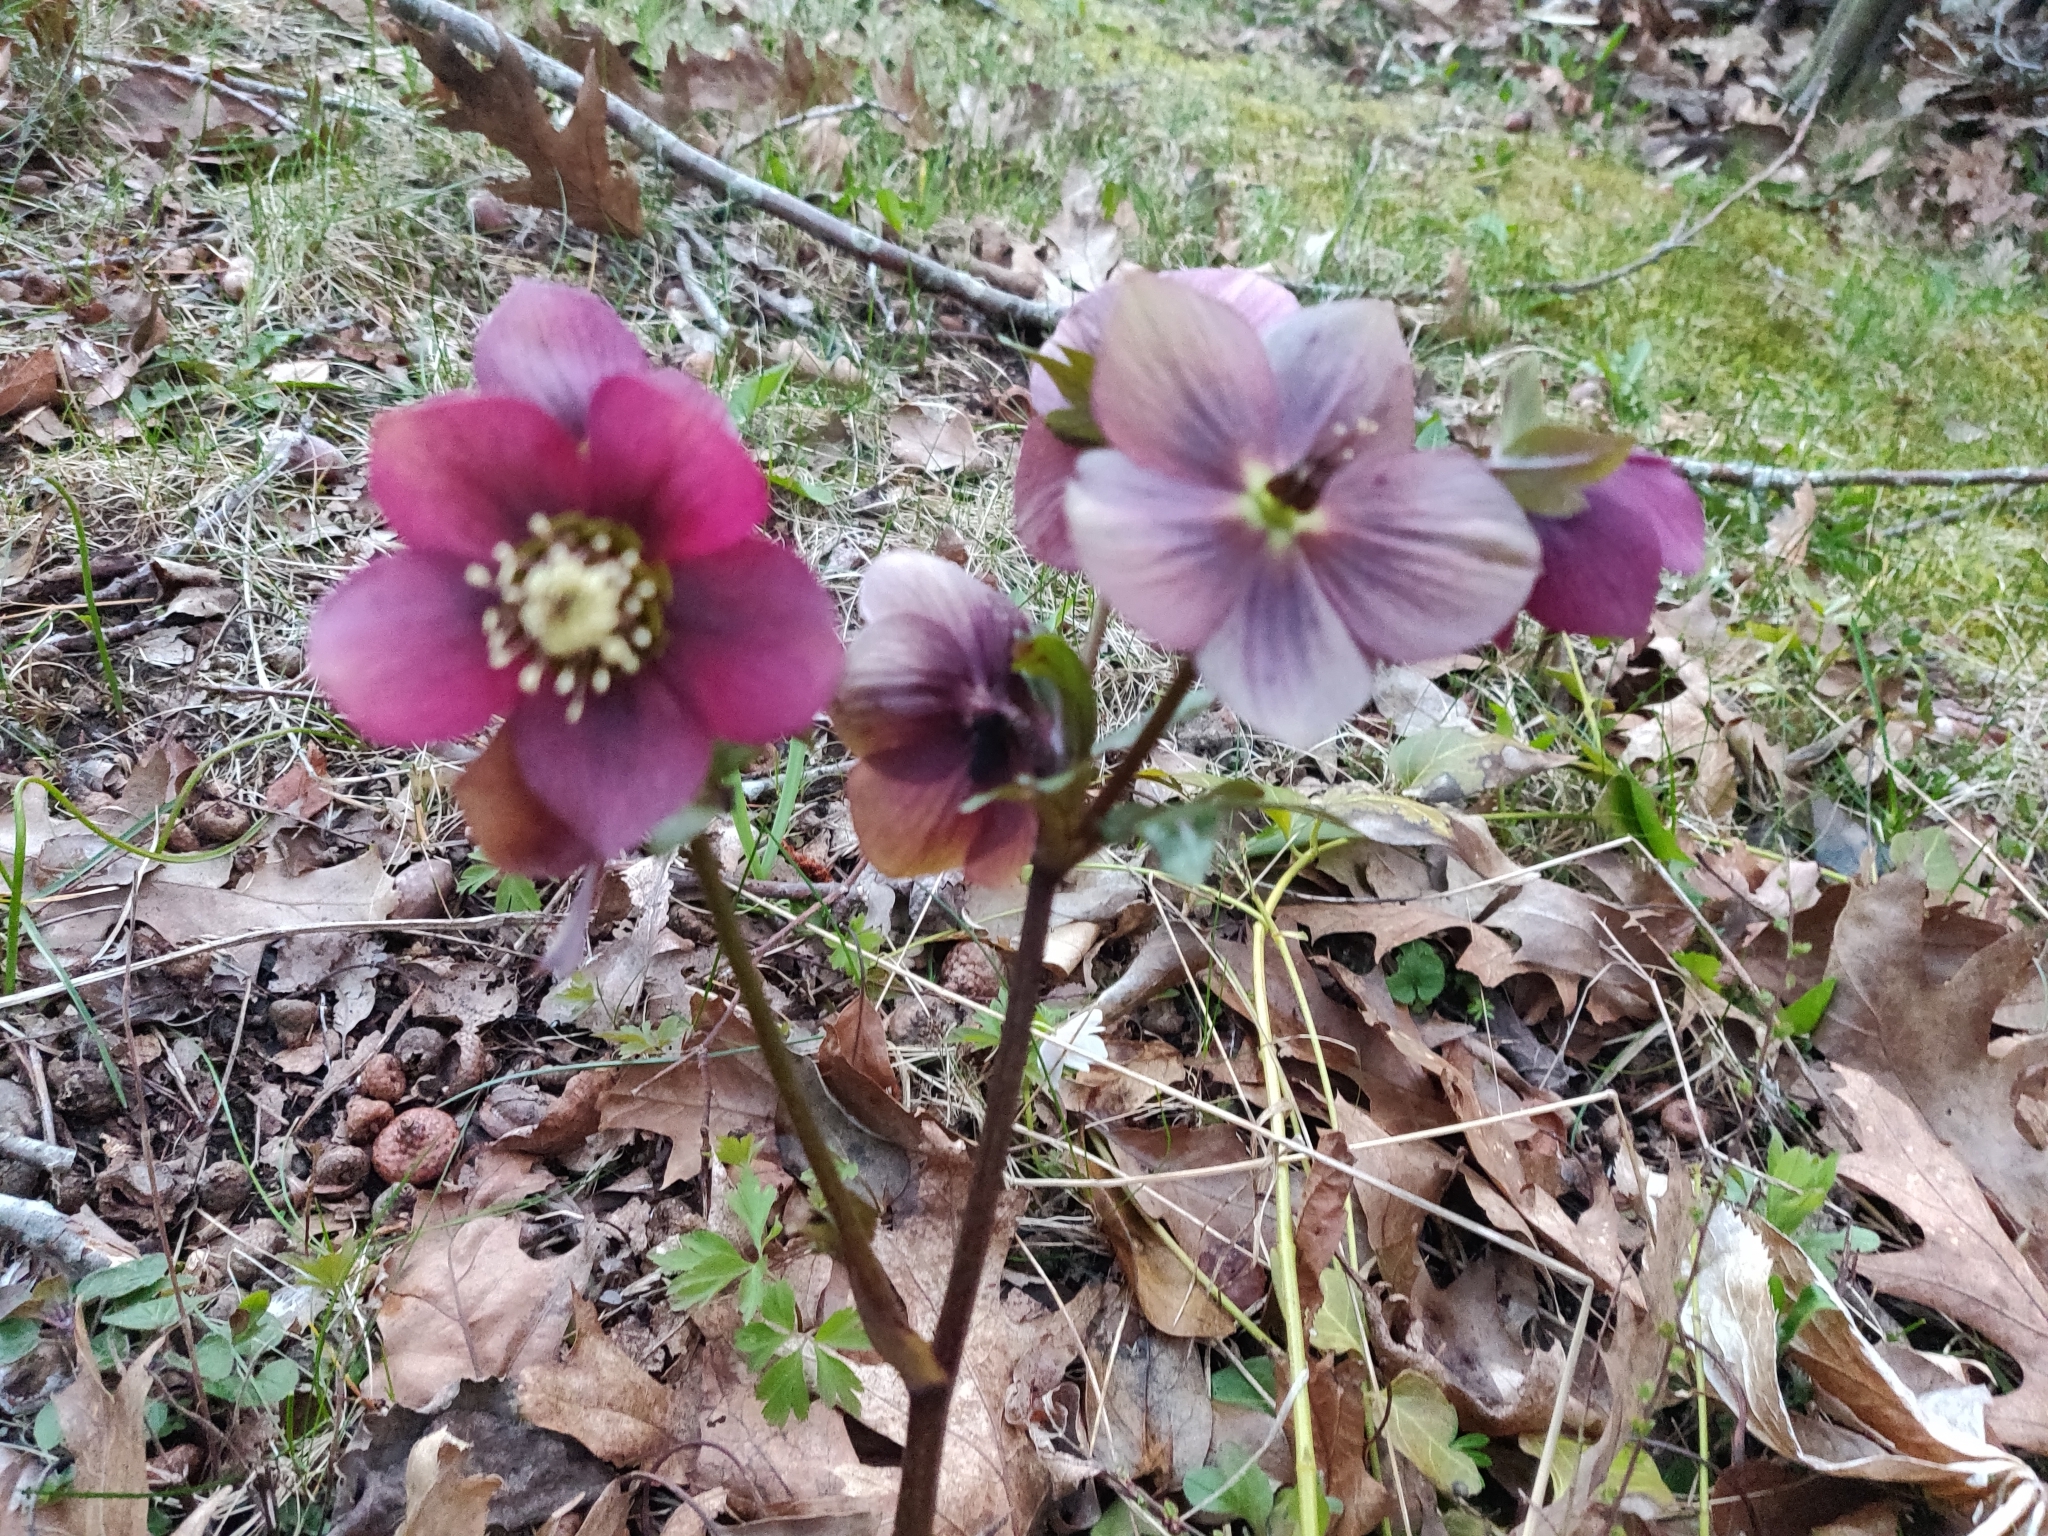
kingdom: Plantae
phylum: Tracheophyta
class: Magnoliopsida
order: Ranunculales
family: Ranunculaceae
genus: Helleborus
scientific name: Helleborus orientalis
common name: Lenten-rose
